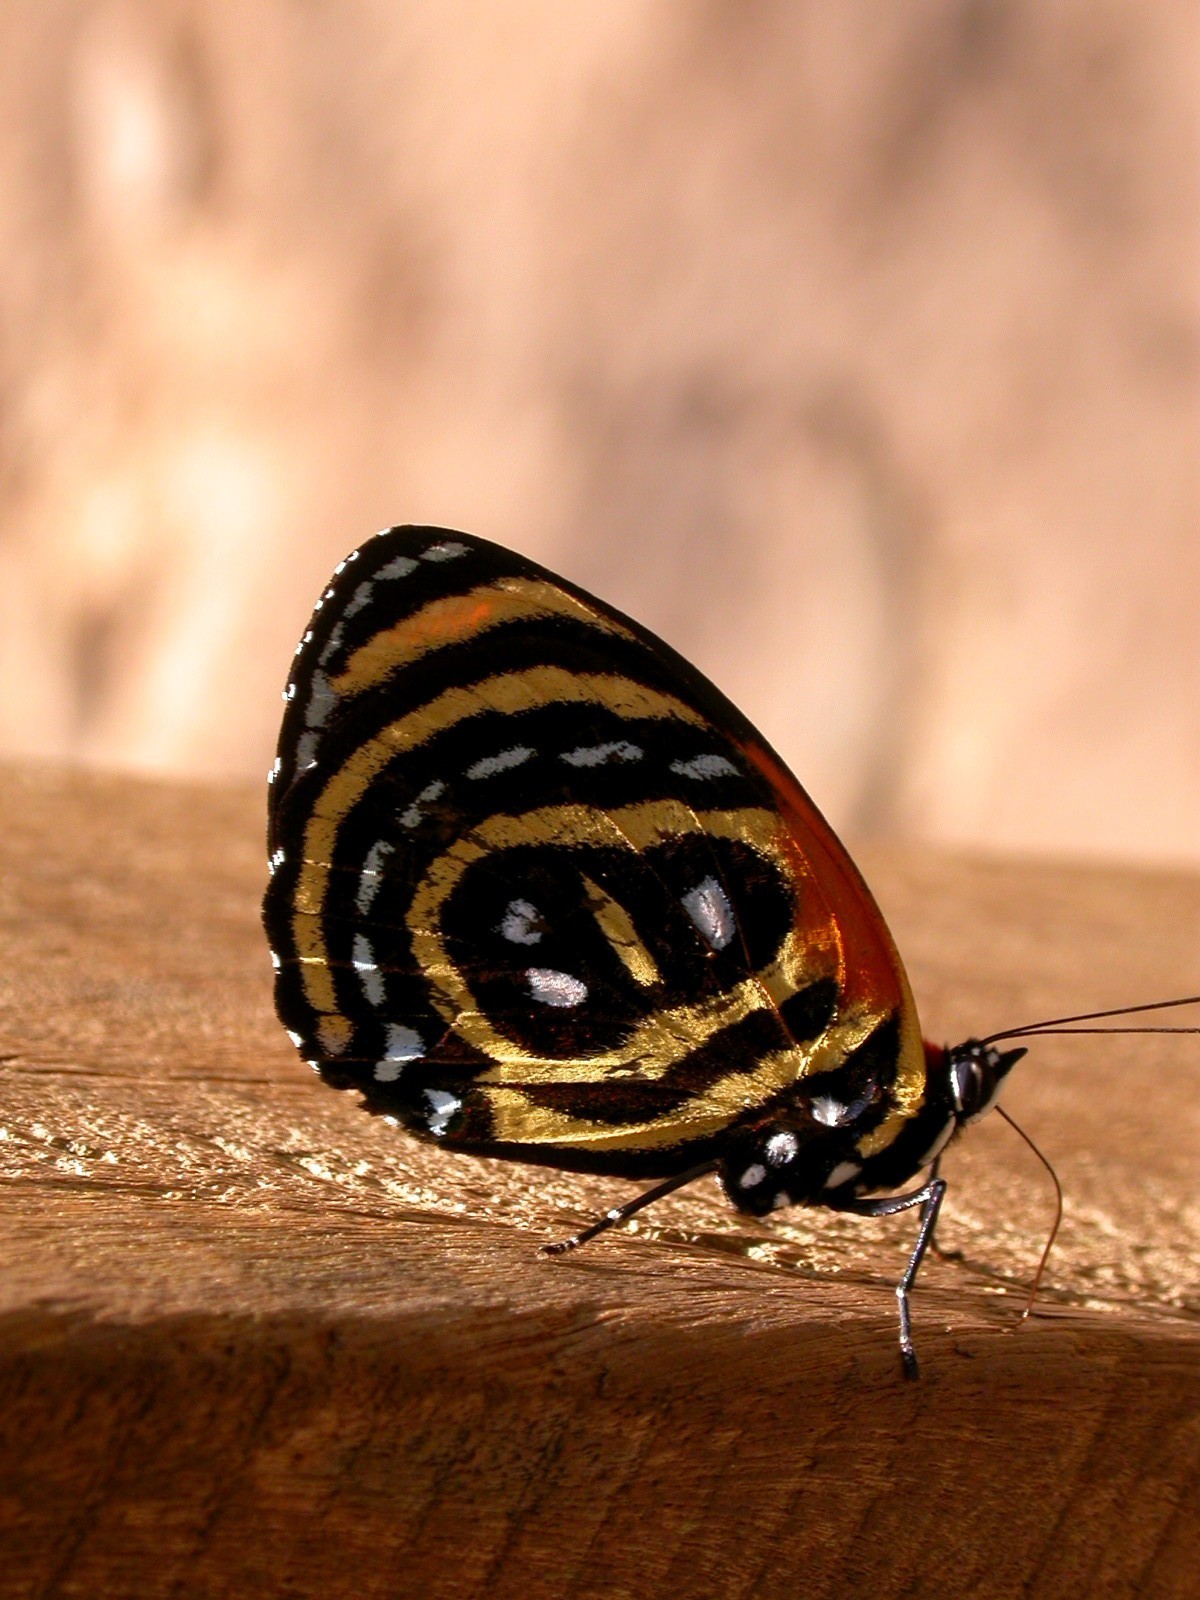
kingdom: Animalia
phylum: Arthropoda
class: Insecta
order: Lepidoptera
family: Nymphalidae
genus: Catagramma
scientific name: Catagramma cynosura
